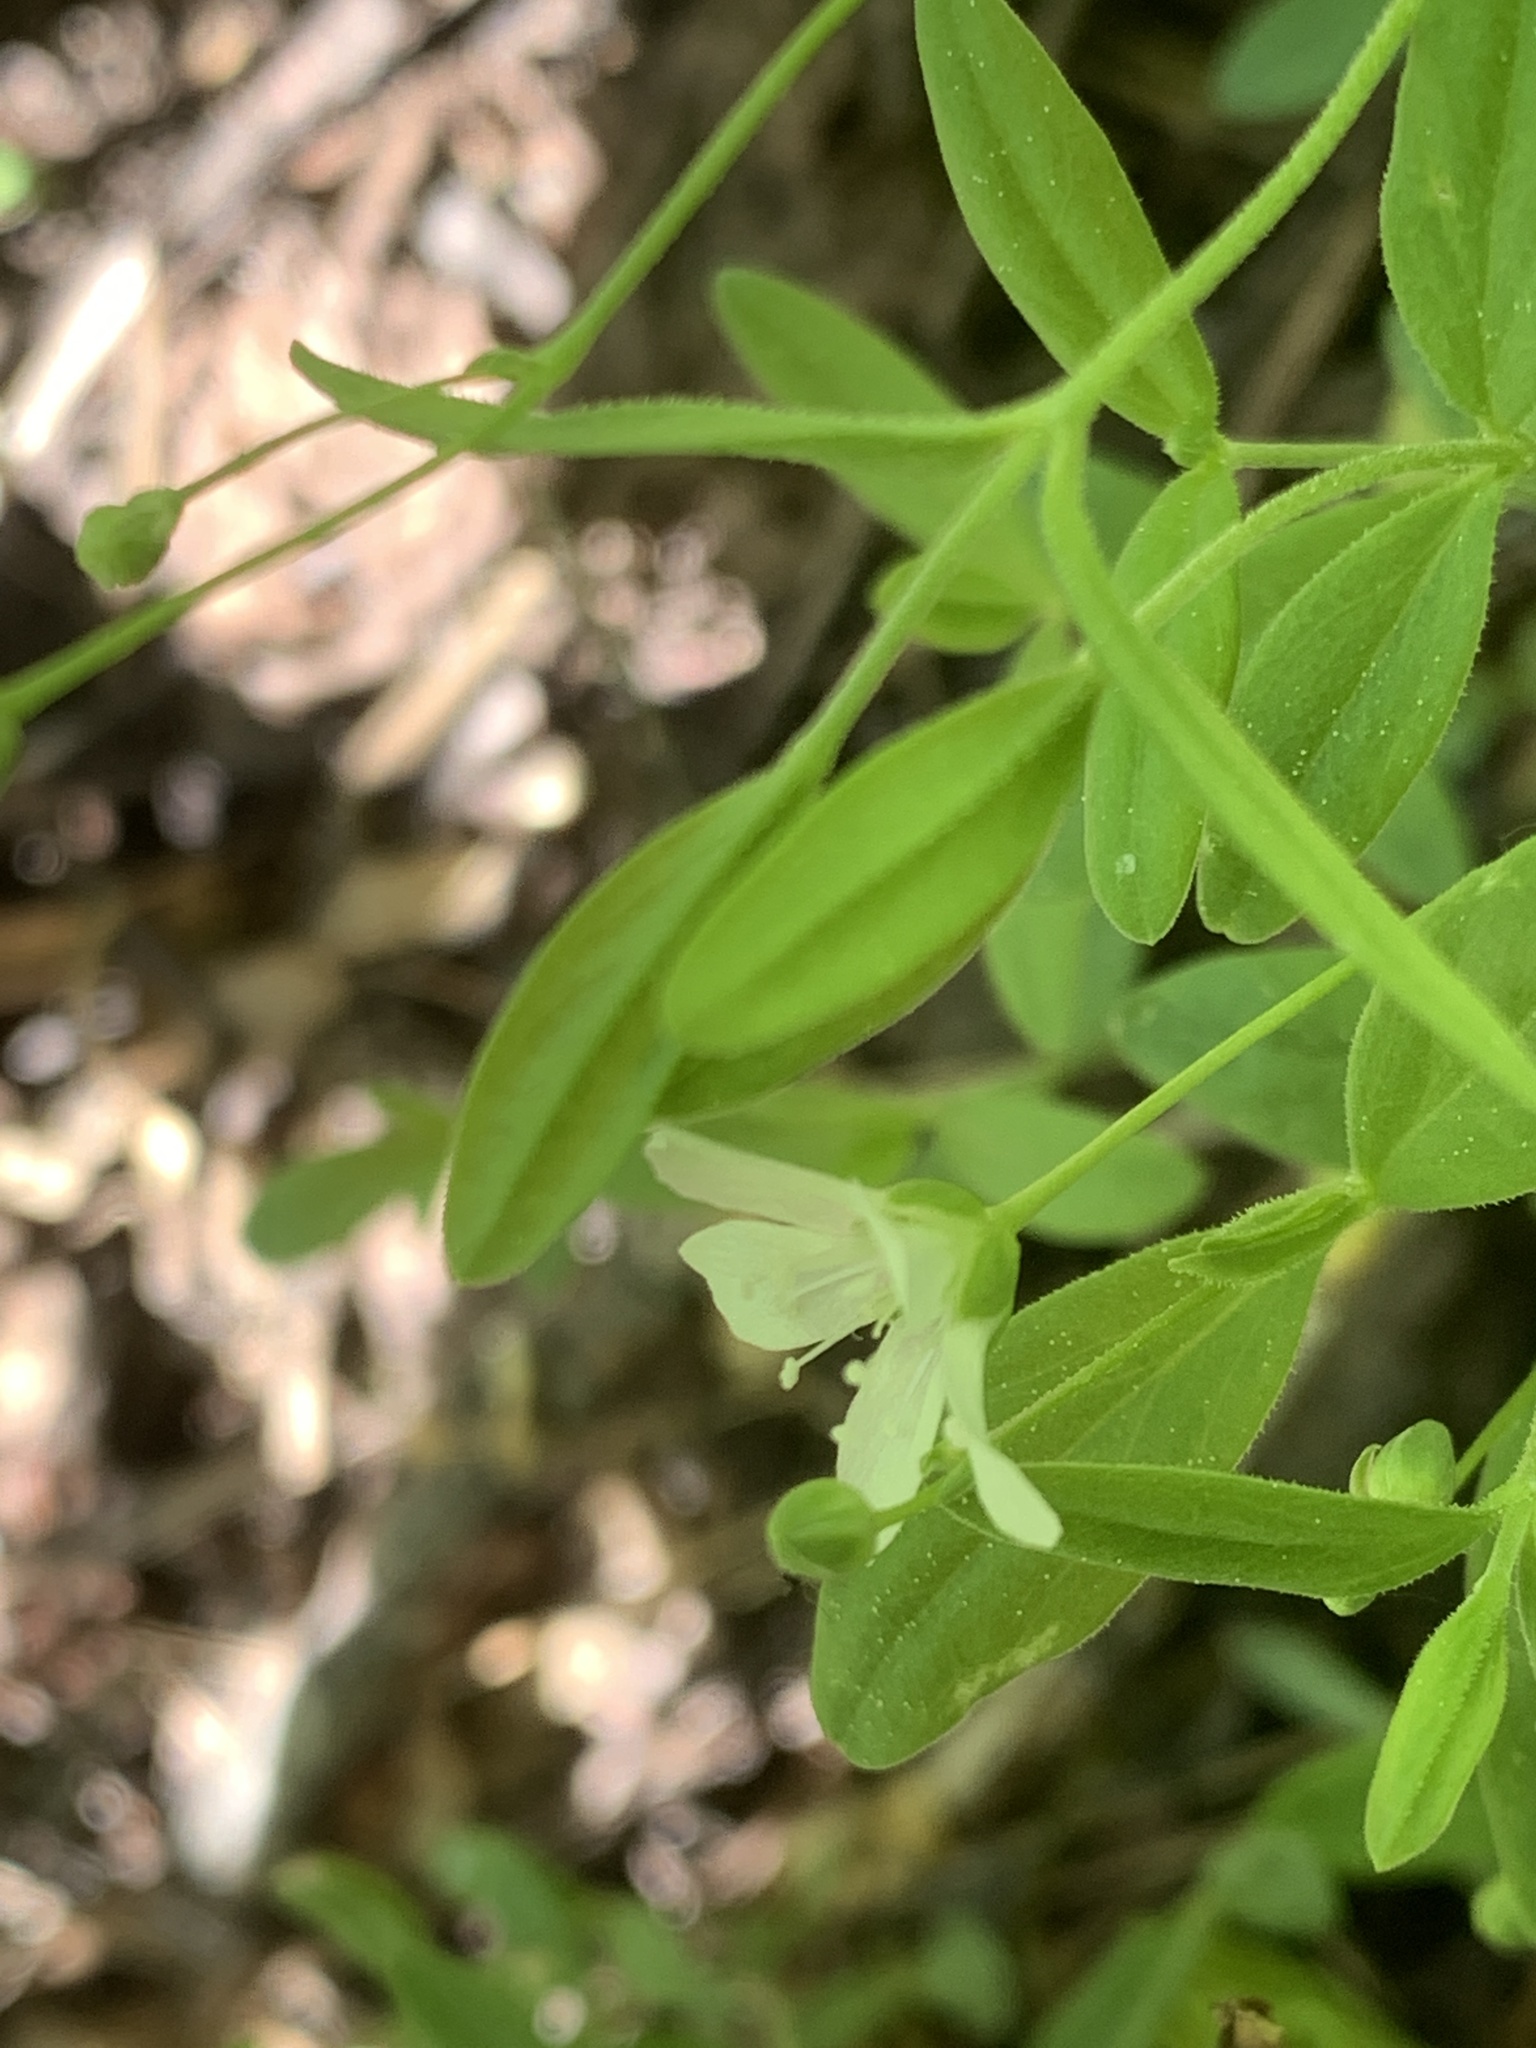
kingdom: Plantae
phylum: Tracheophyta
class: Magnoliopsida
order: Caryophyllales
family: Caryophyllaceae
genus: Moehringia
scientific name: Moehringia lateriflora
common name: Blunt-leaved sandwort
